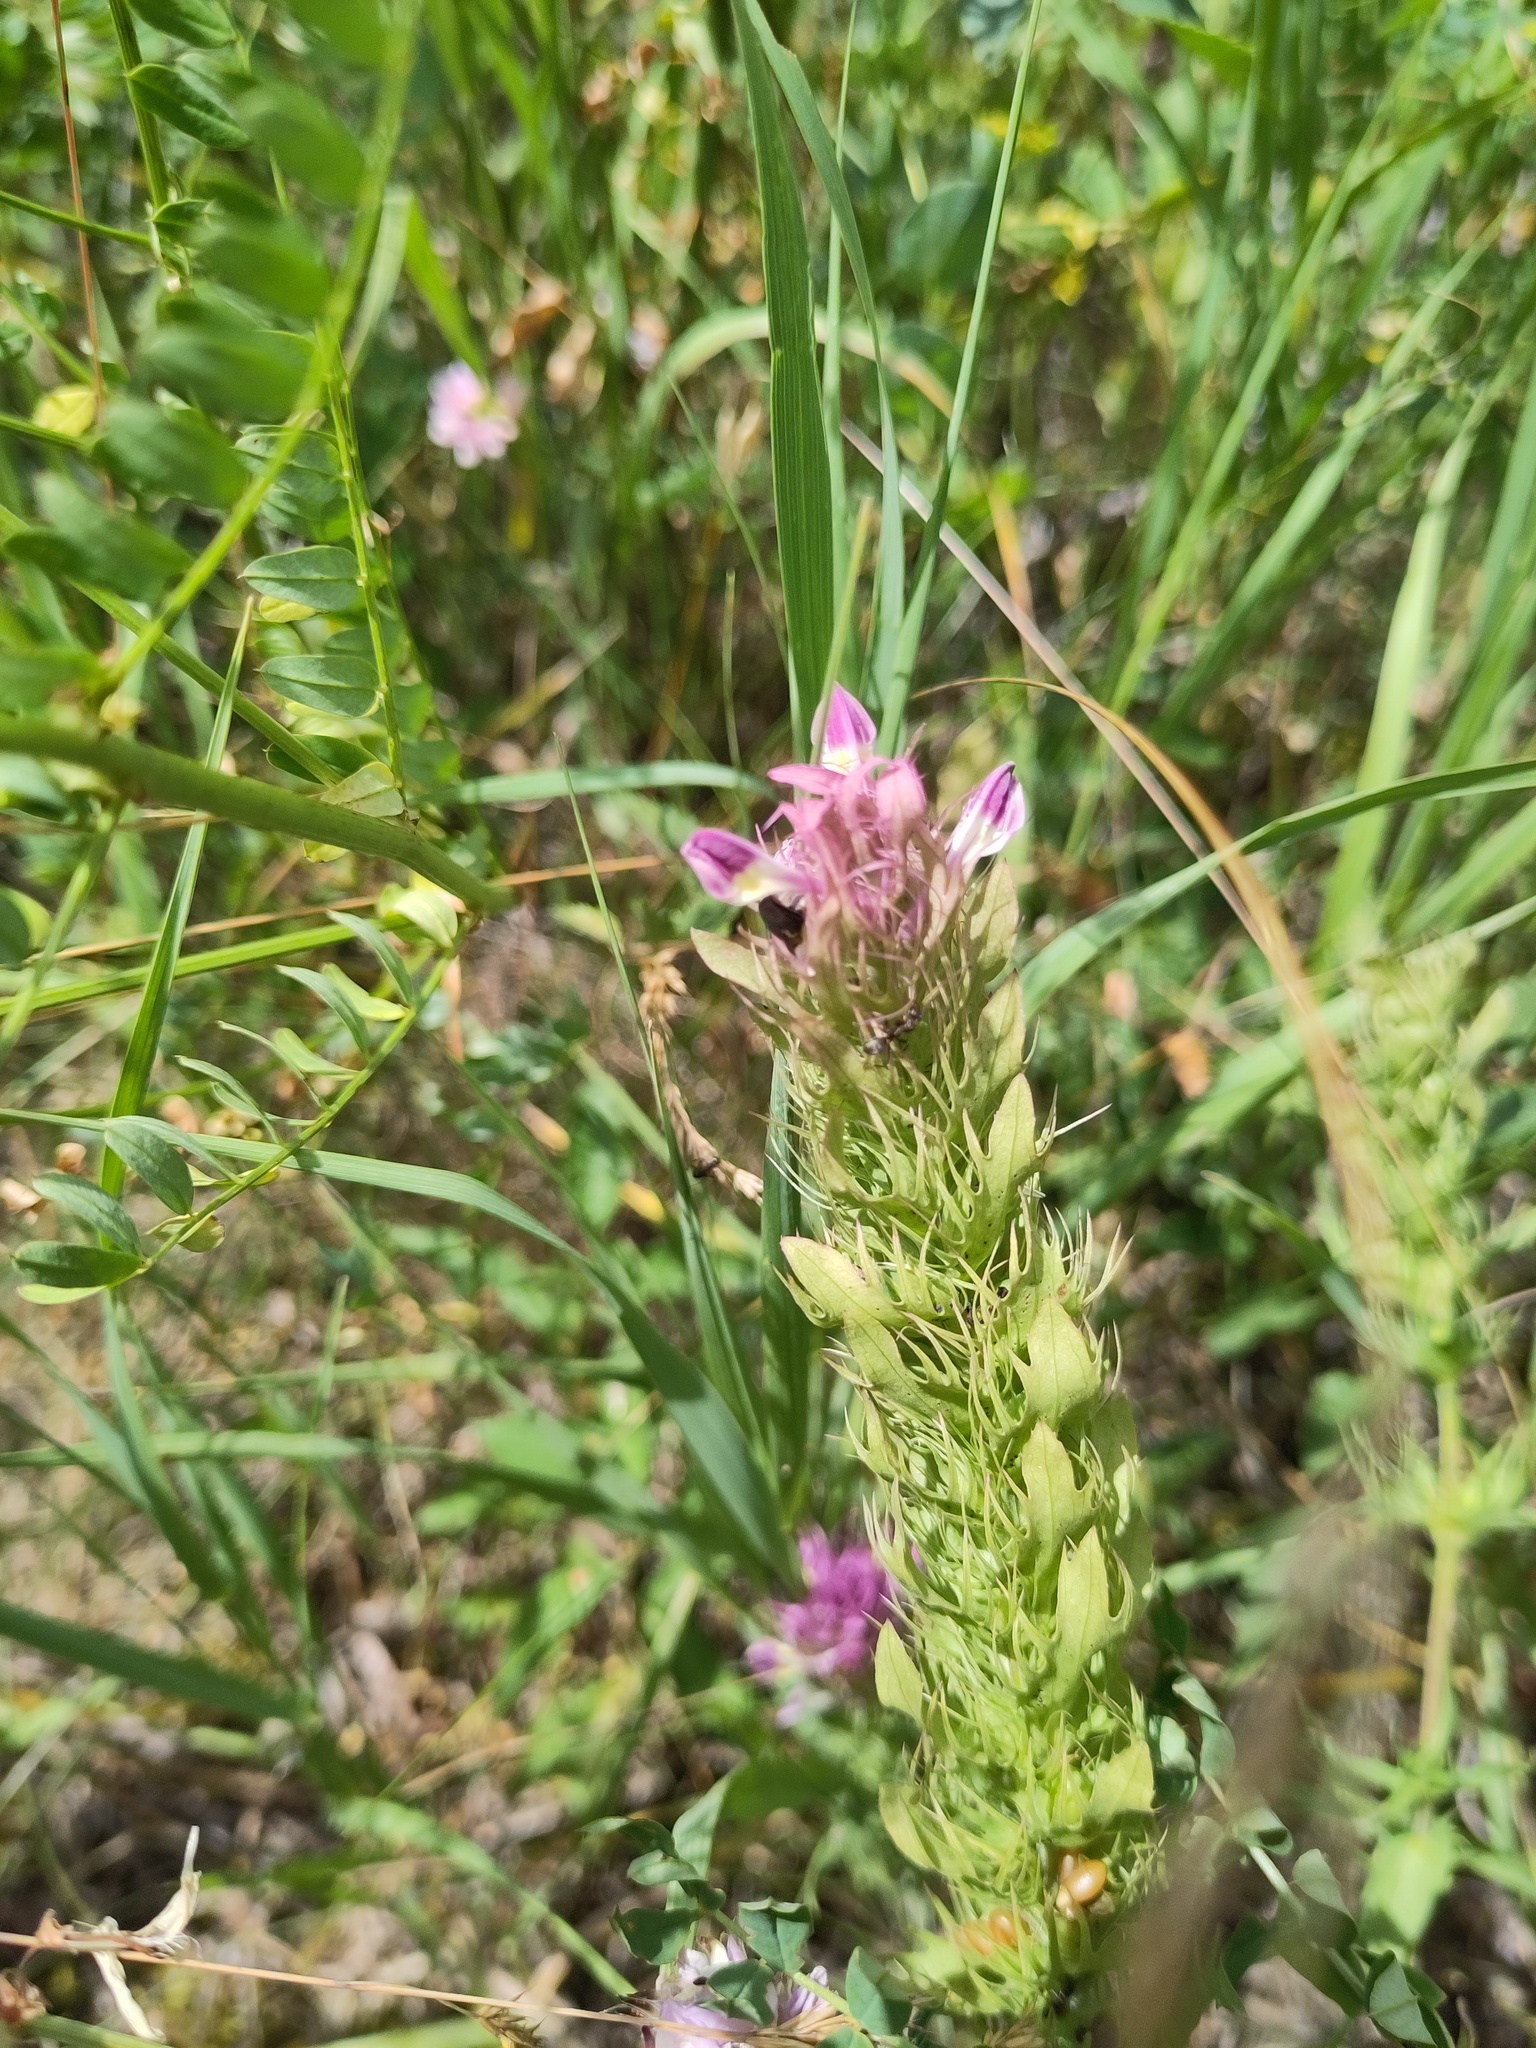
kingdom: Plantae
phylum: Tracheophyta
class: Magnoliopsida
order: Lamiales
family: Orobanchaceae
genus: Melampyrum
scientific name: Melampyrum arvense
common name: Field cow-wheat
